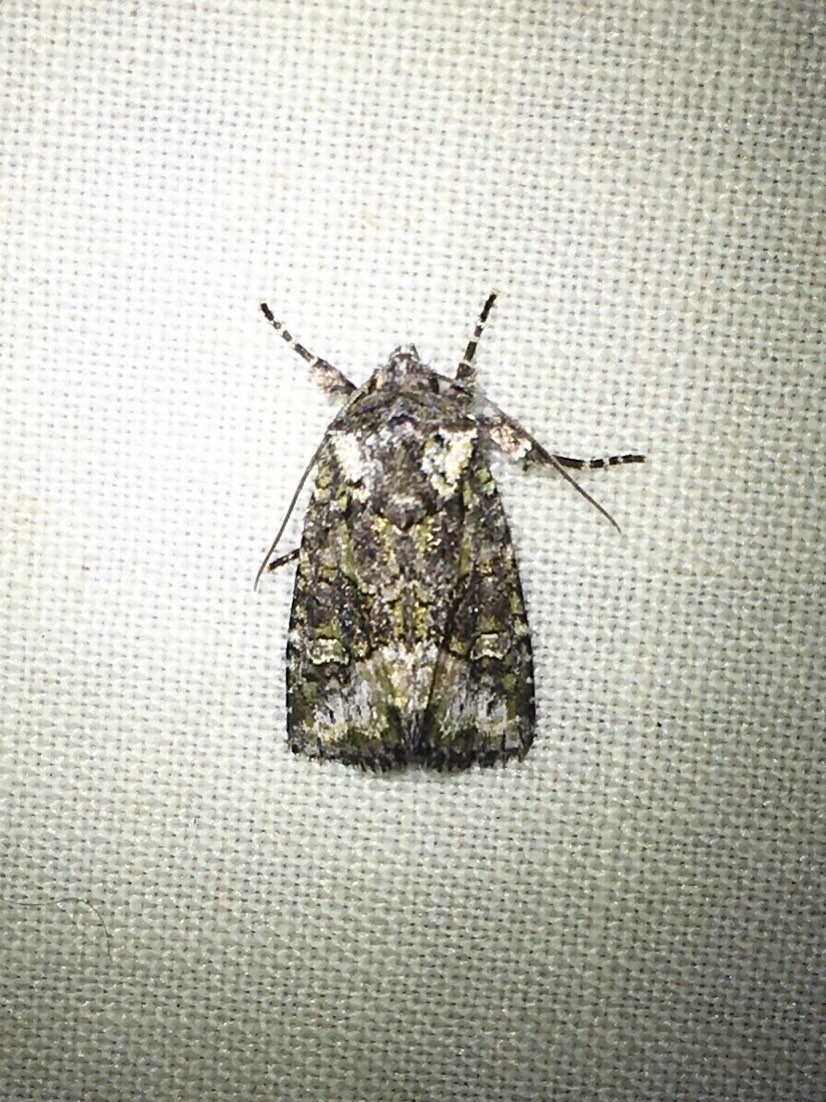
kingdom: Animalia
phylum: Arthropoda
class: Insecta
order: Lepidoptera
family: Noctuidae
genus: Lacinipolia
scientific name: Lacinipolia olivacea
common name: Olive arches moth
